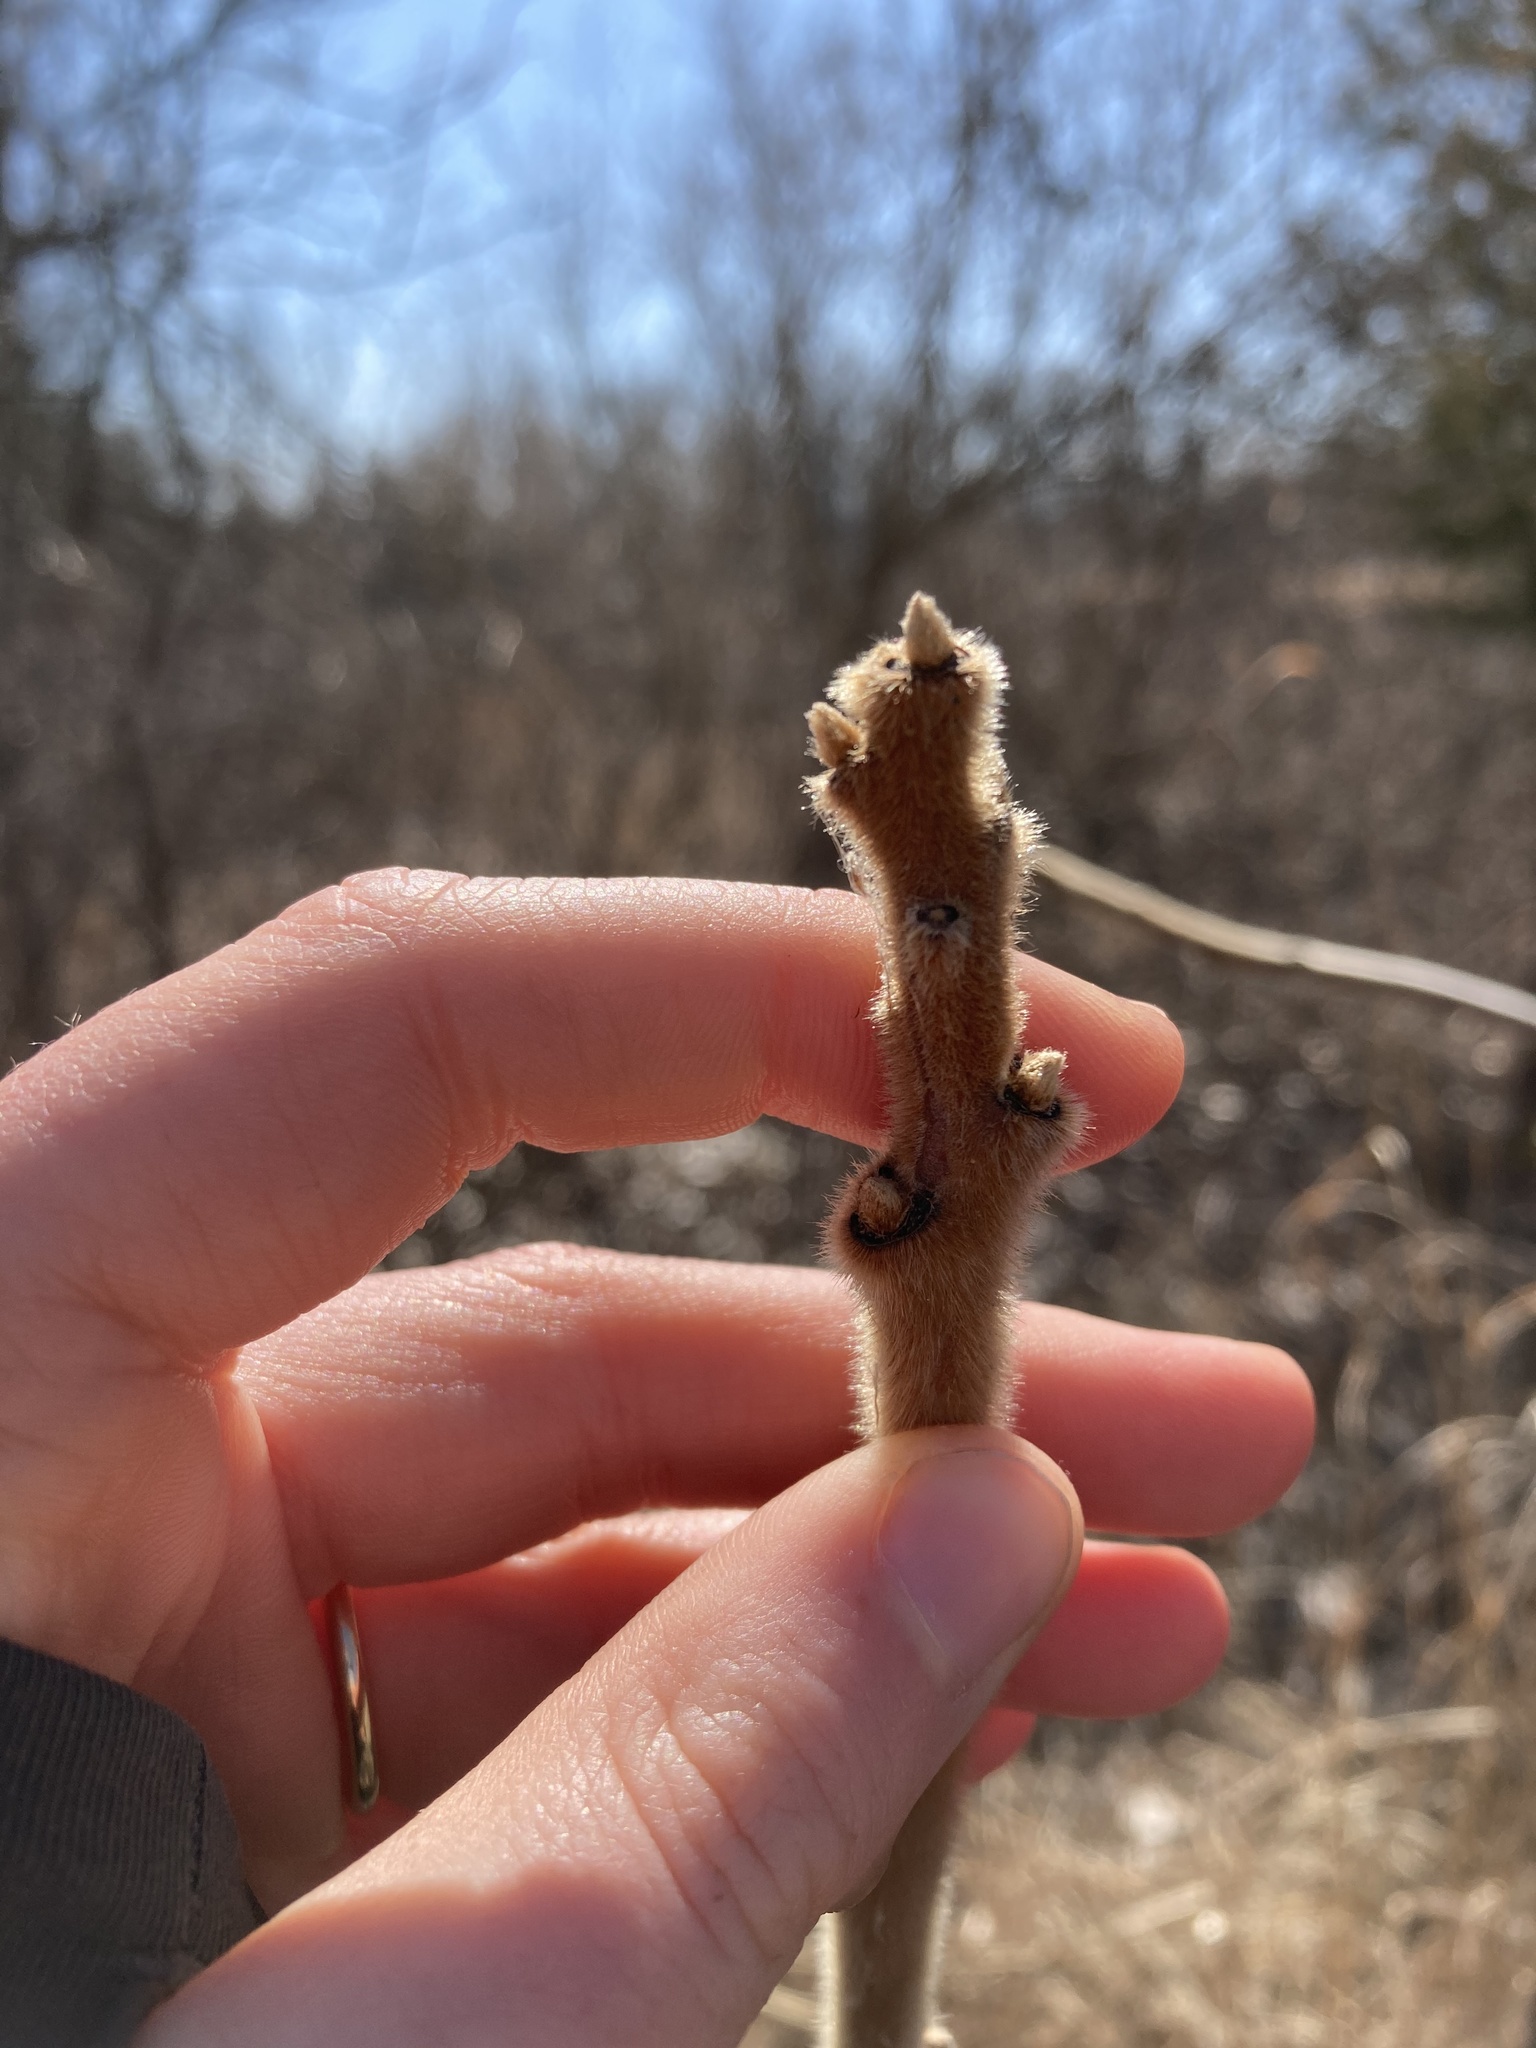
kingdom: Plantae
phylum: Tracheophyta
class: Magnoliopsida
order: Sapindales
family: Anacardiaceae
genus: Rhus
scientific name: Rhus typhina
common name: Staghorn sumac
